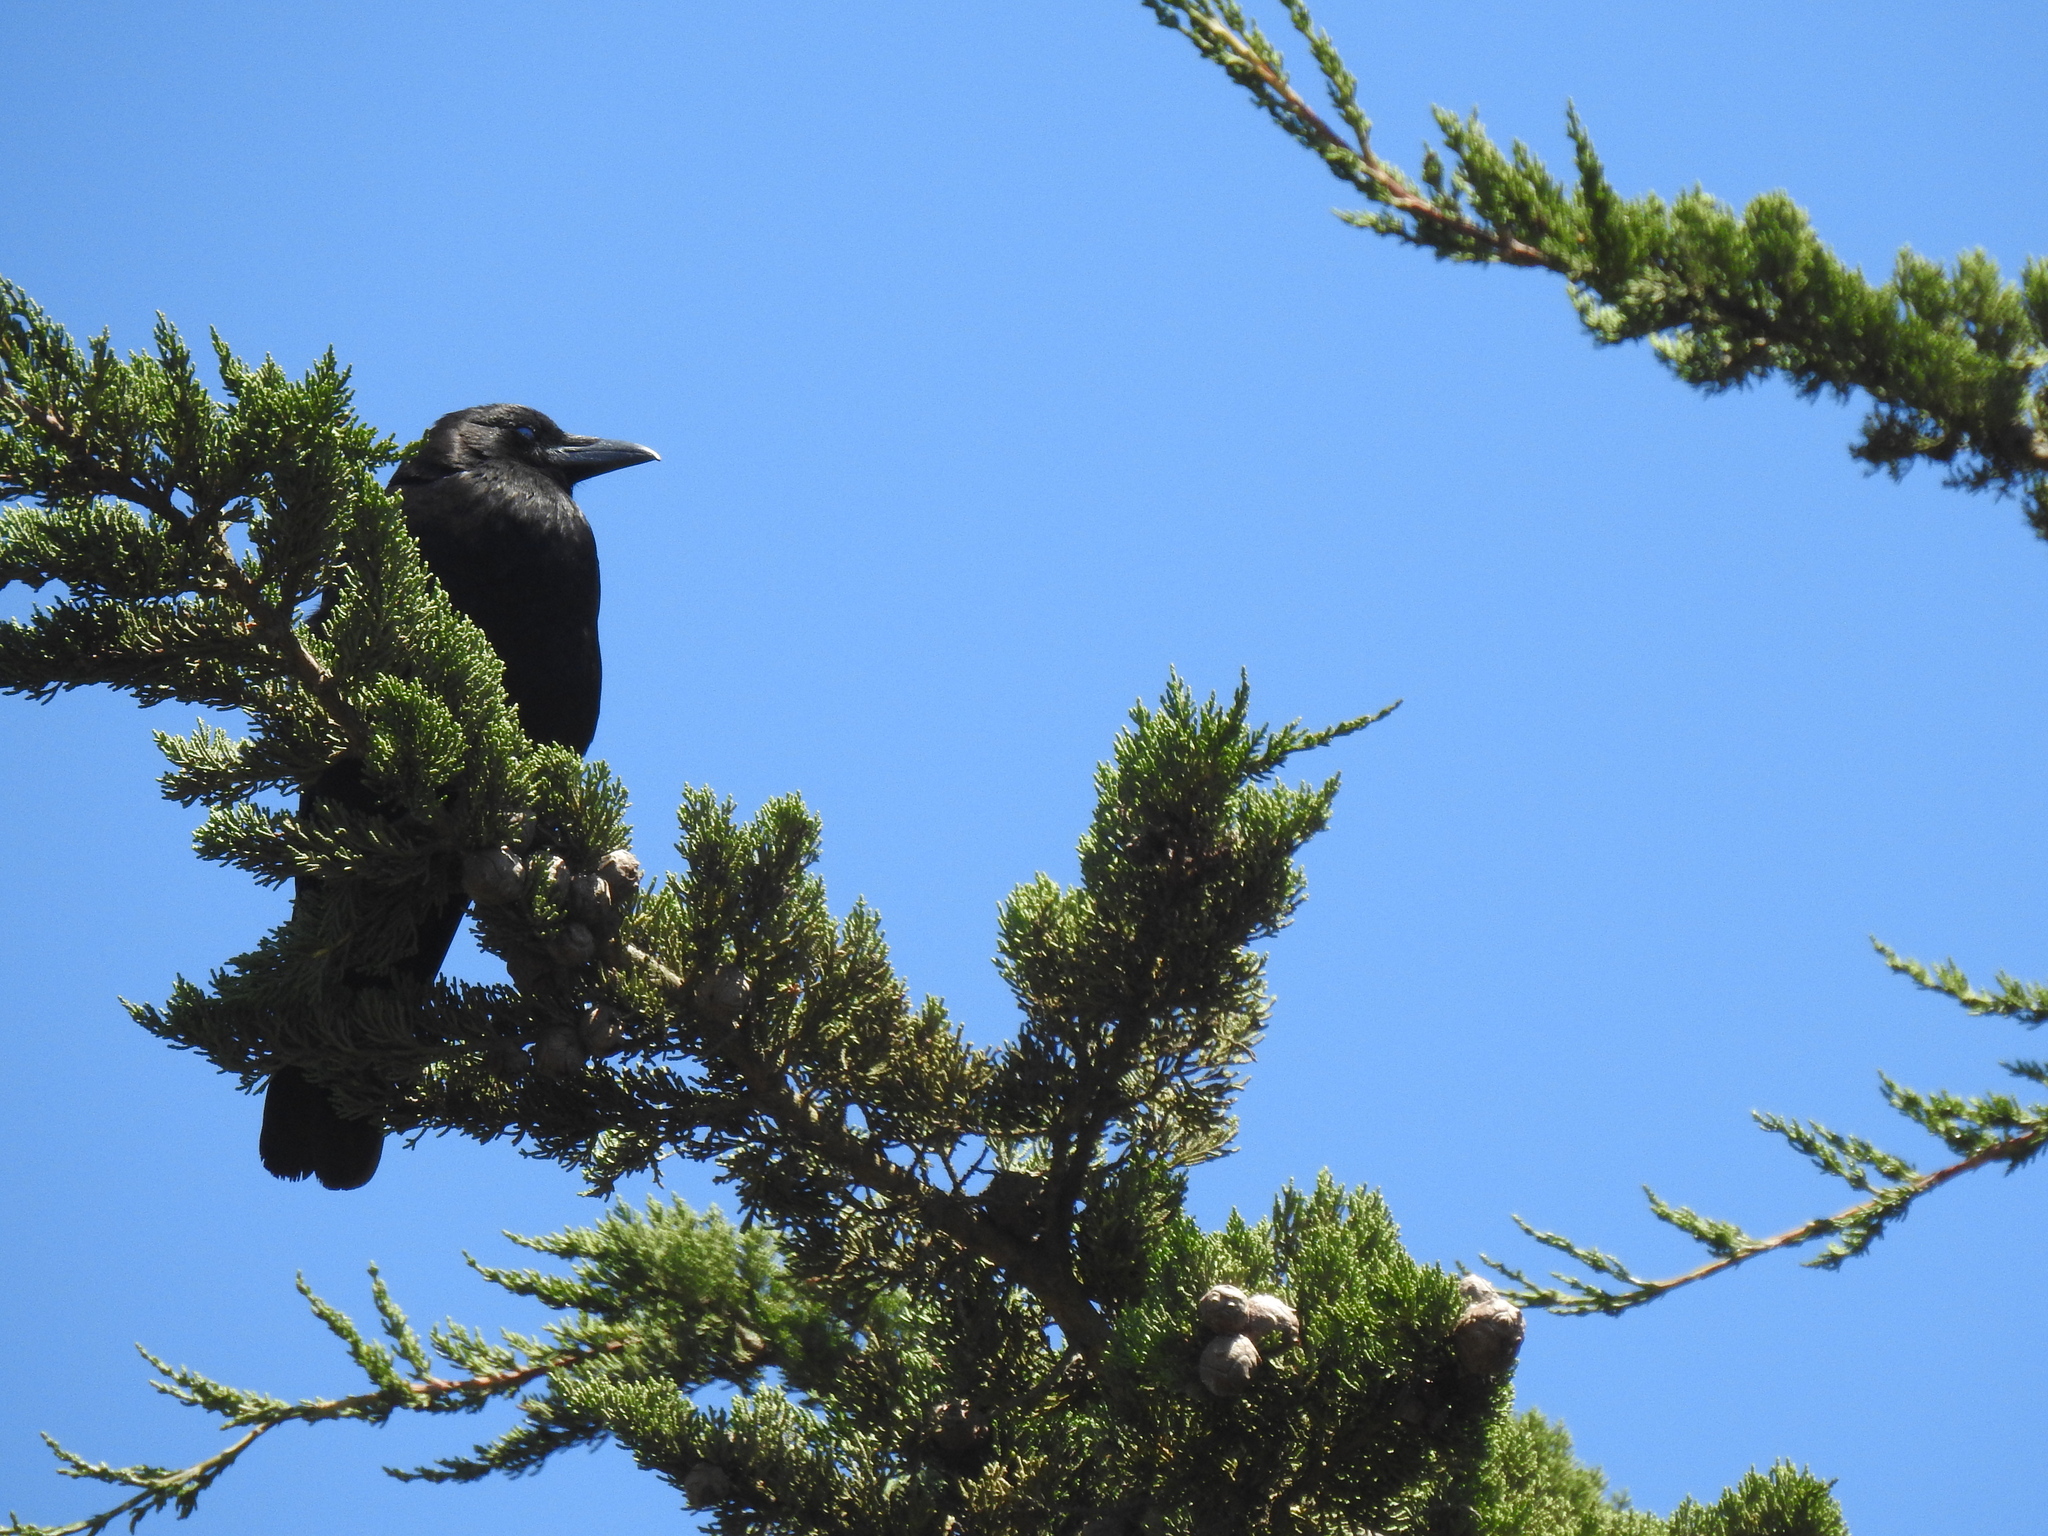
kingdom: Animalia
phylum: Chordata
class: Aves
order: Passeriformes
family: Corvidae
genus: Corvus
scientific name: Corvus corax
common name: Common raven
